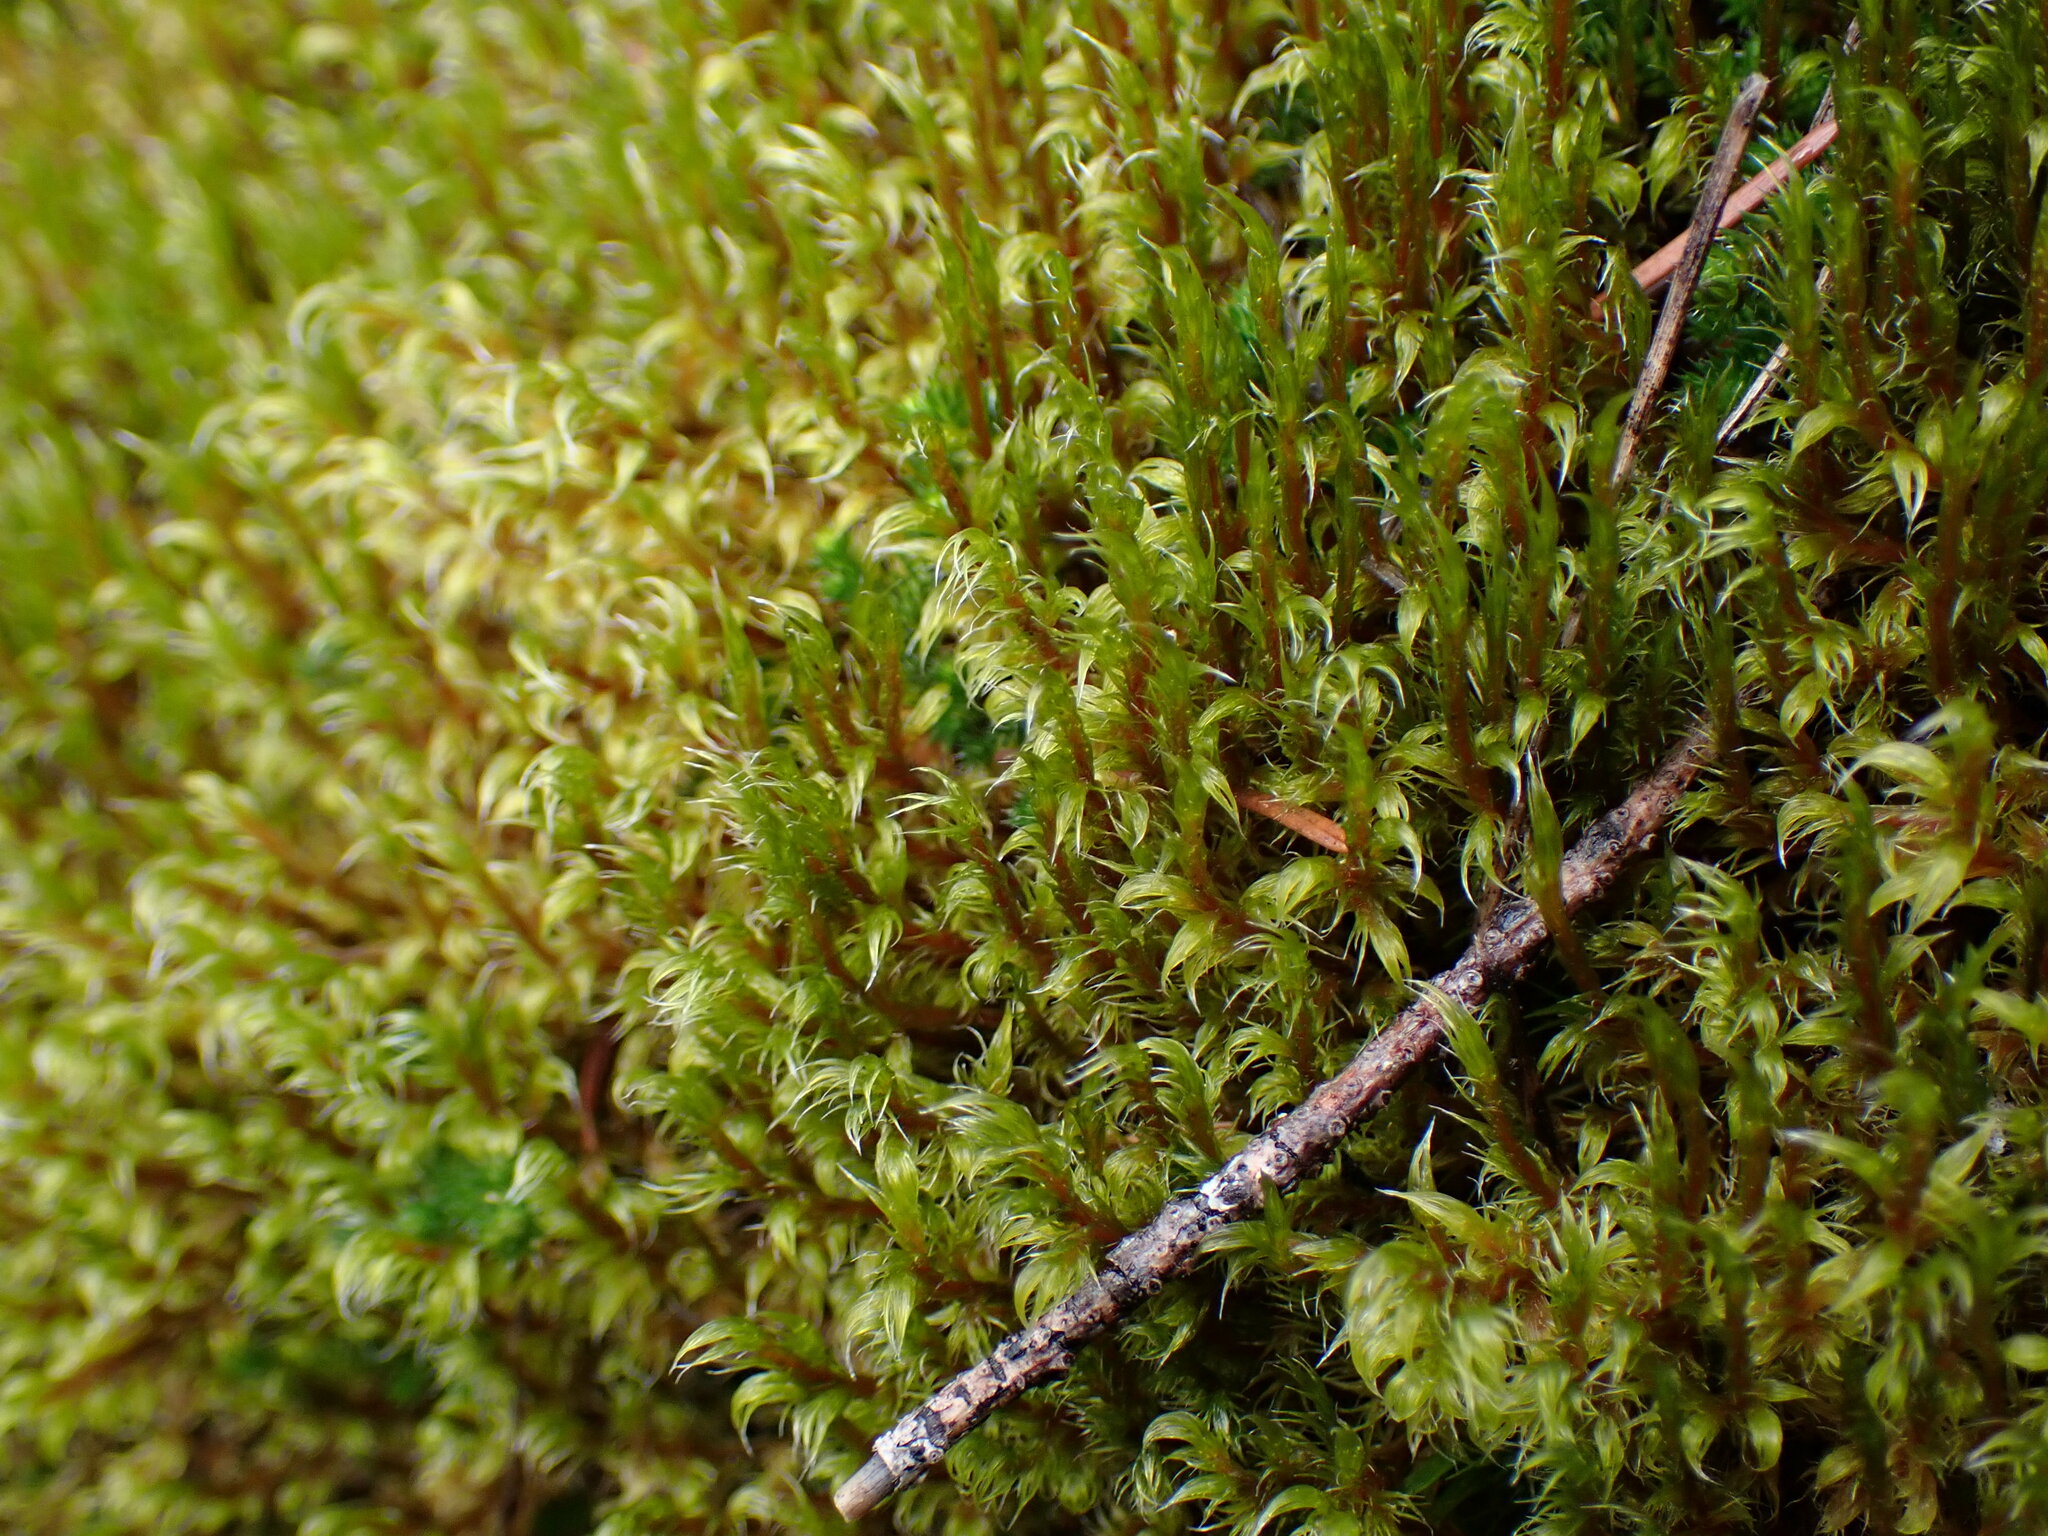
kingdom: Plantae
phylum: Bryophyta
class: Bryopsida
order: Grimmiales
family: Grimmiaceae
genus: Racomitrium
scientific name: Racomitrium lanuginosum
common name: Hoary rock moss
